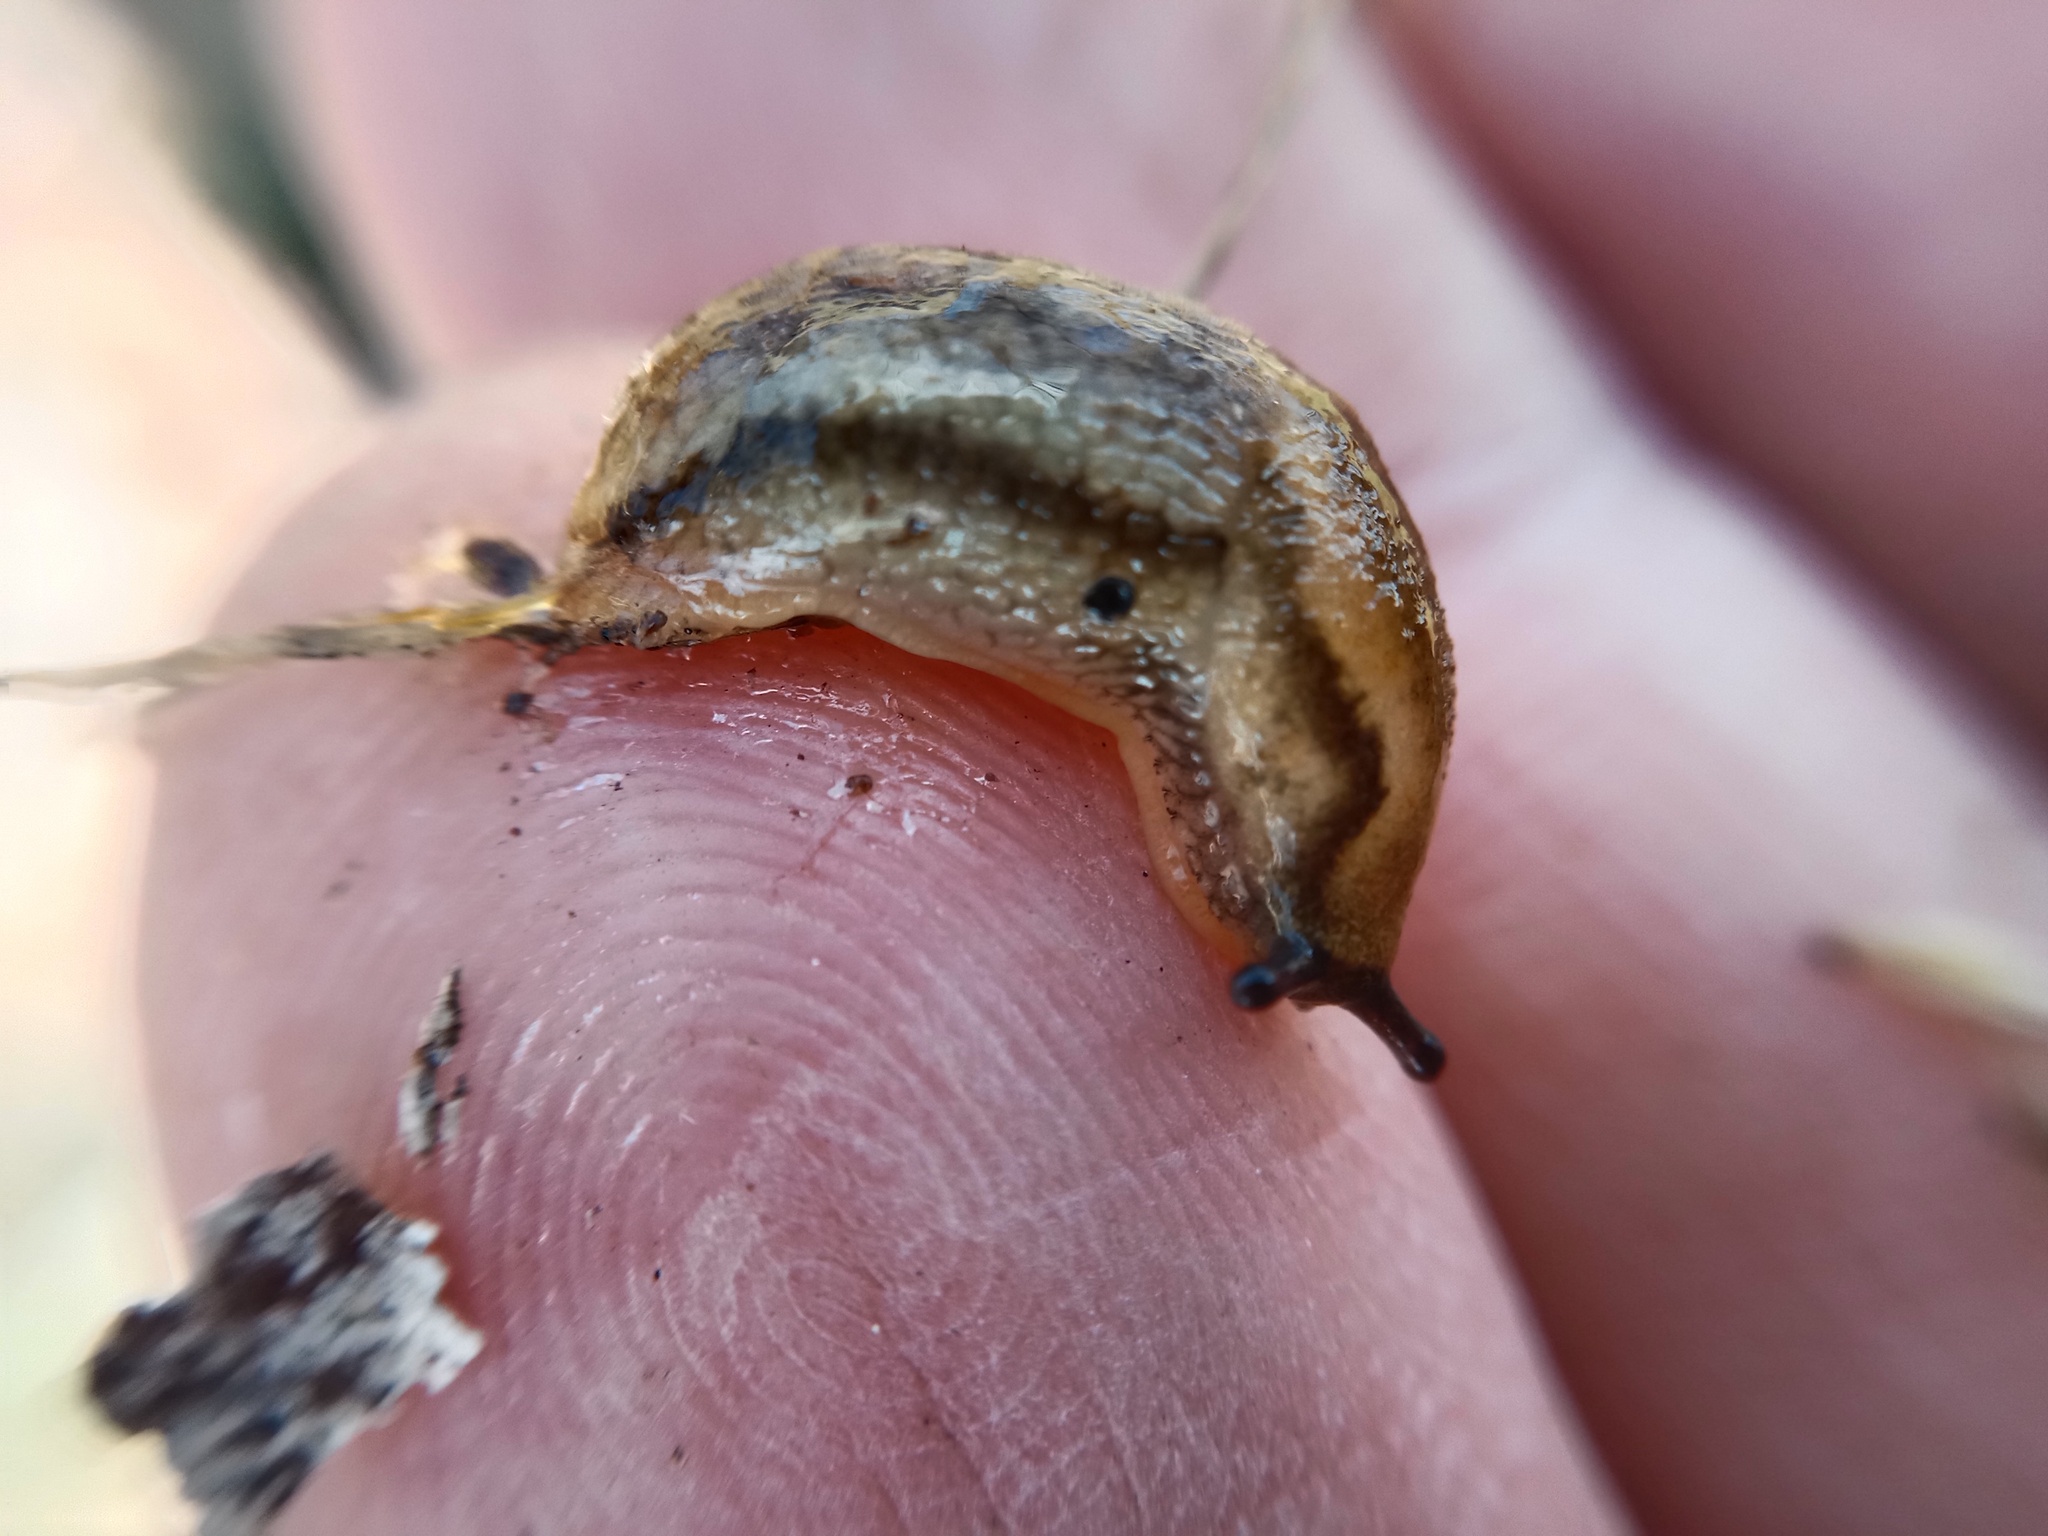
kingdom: Animalia
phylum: Mollusca
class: Gastropoda
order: Stylommatophora
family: Arionidae
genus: Arion
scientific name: Arion fuscus
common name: Northern dusky slug
